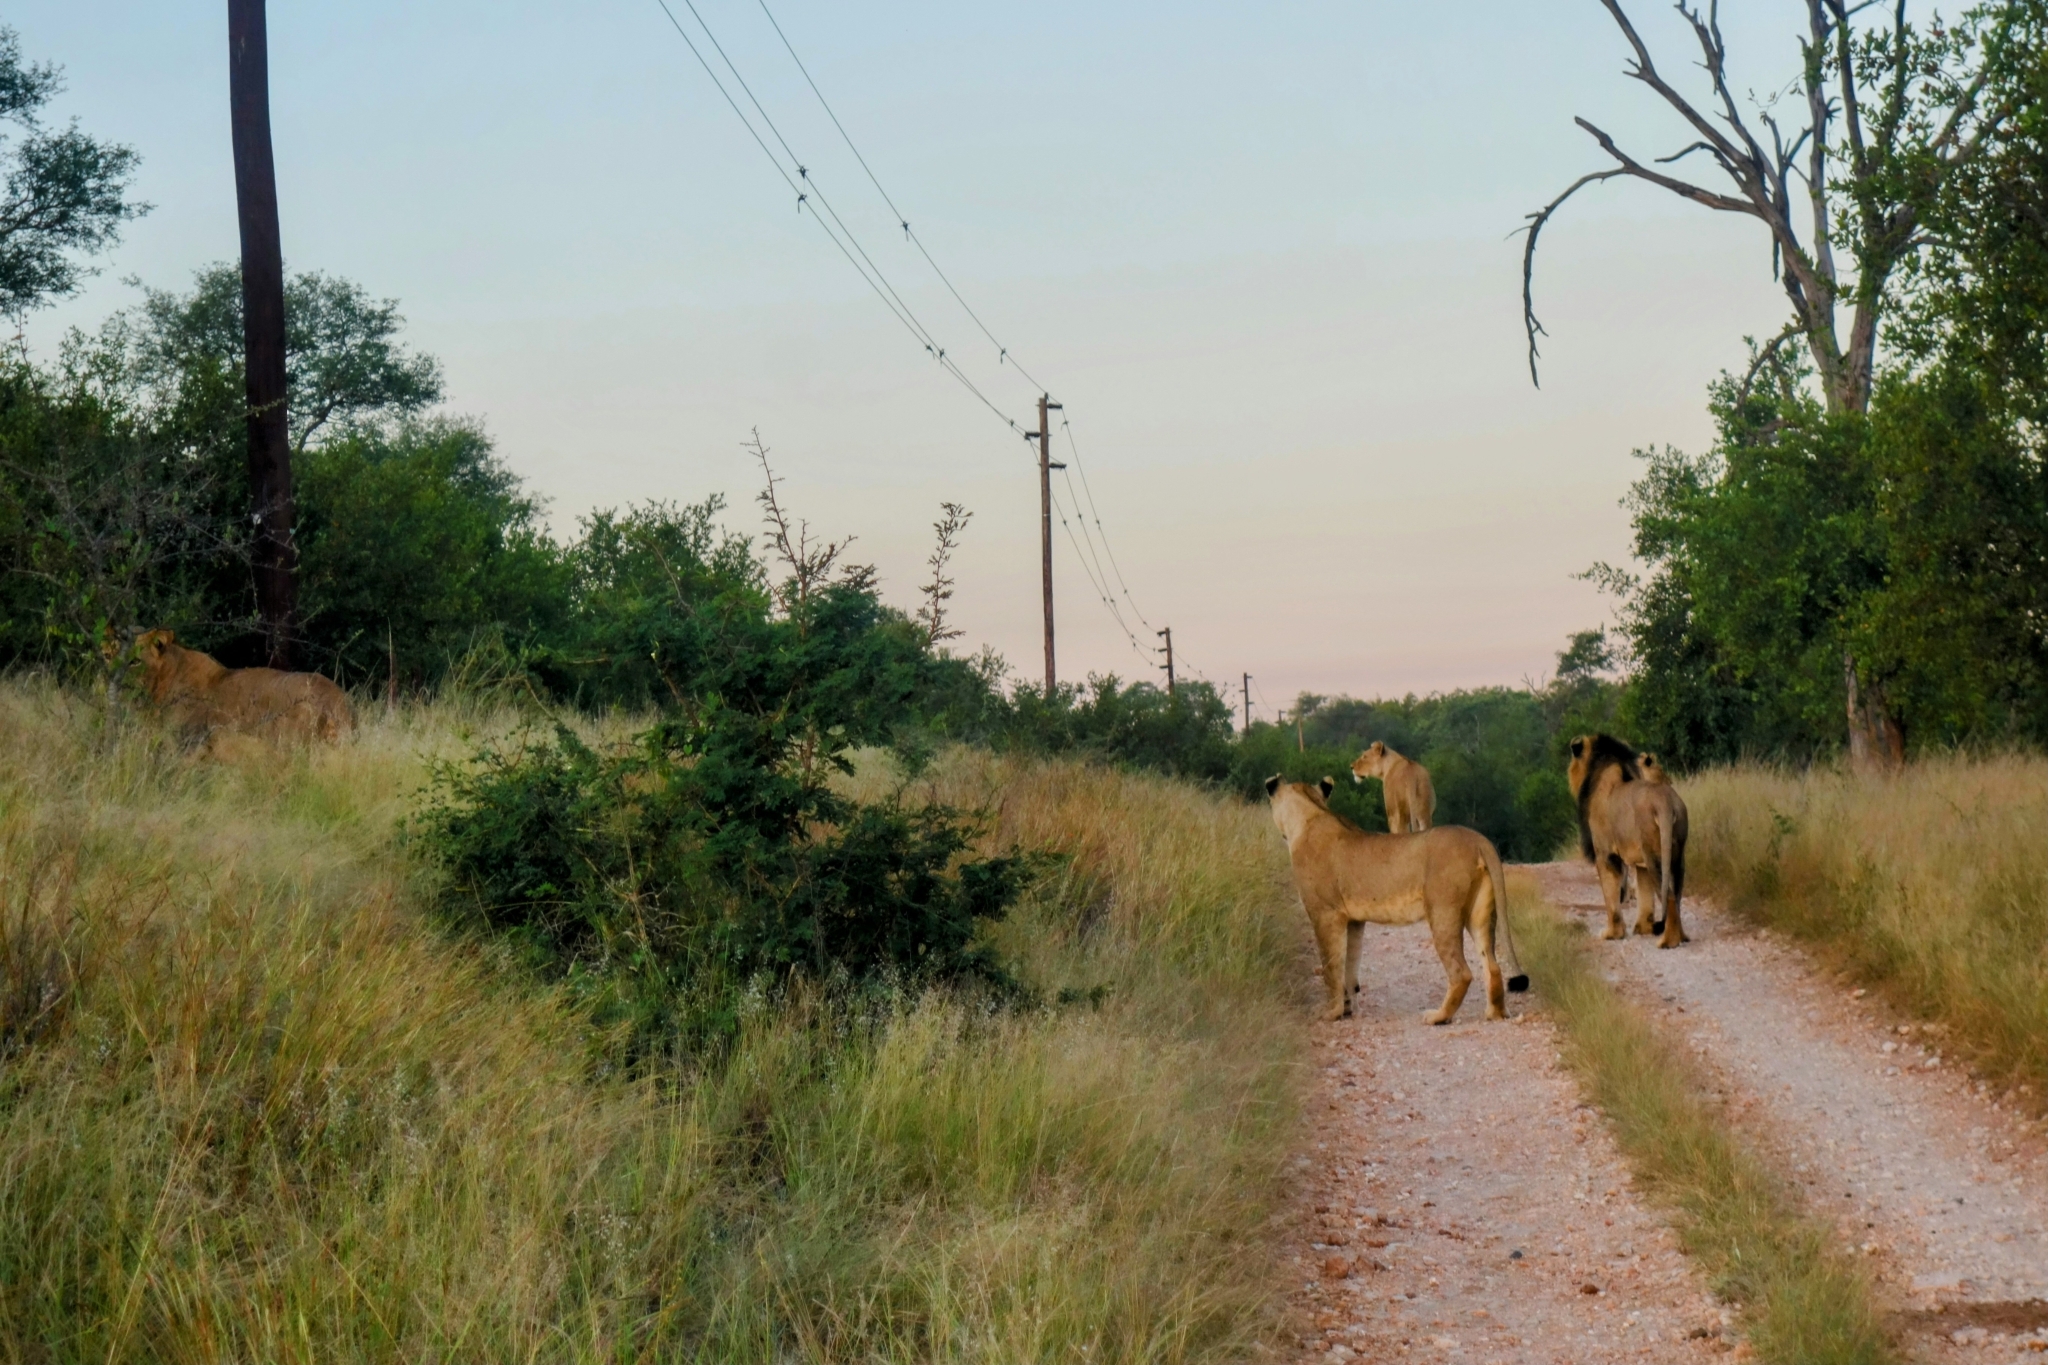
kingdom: Animalia
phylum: Chordata
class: Mammalia
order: Carnivora
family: Felidae
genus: Panthera
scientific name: Panthera leo
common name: Lion
